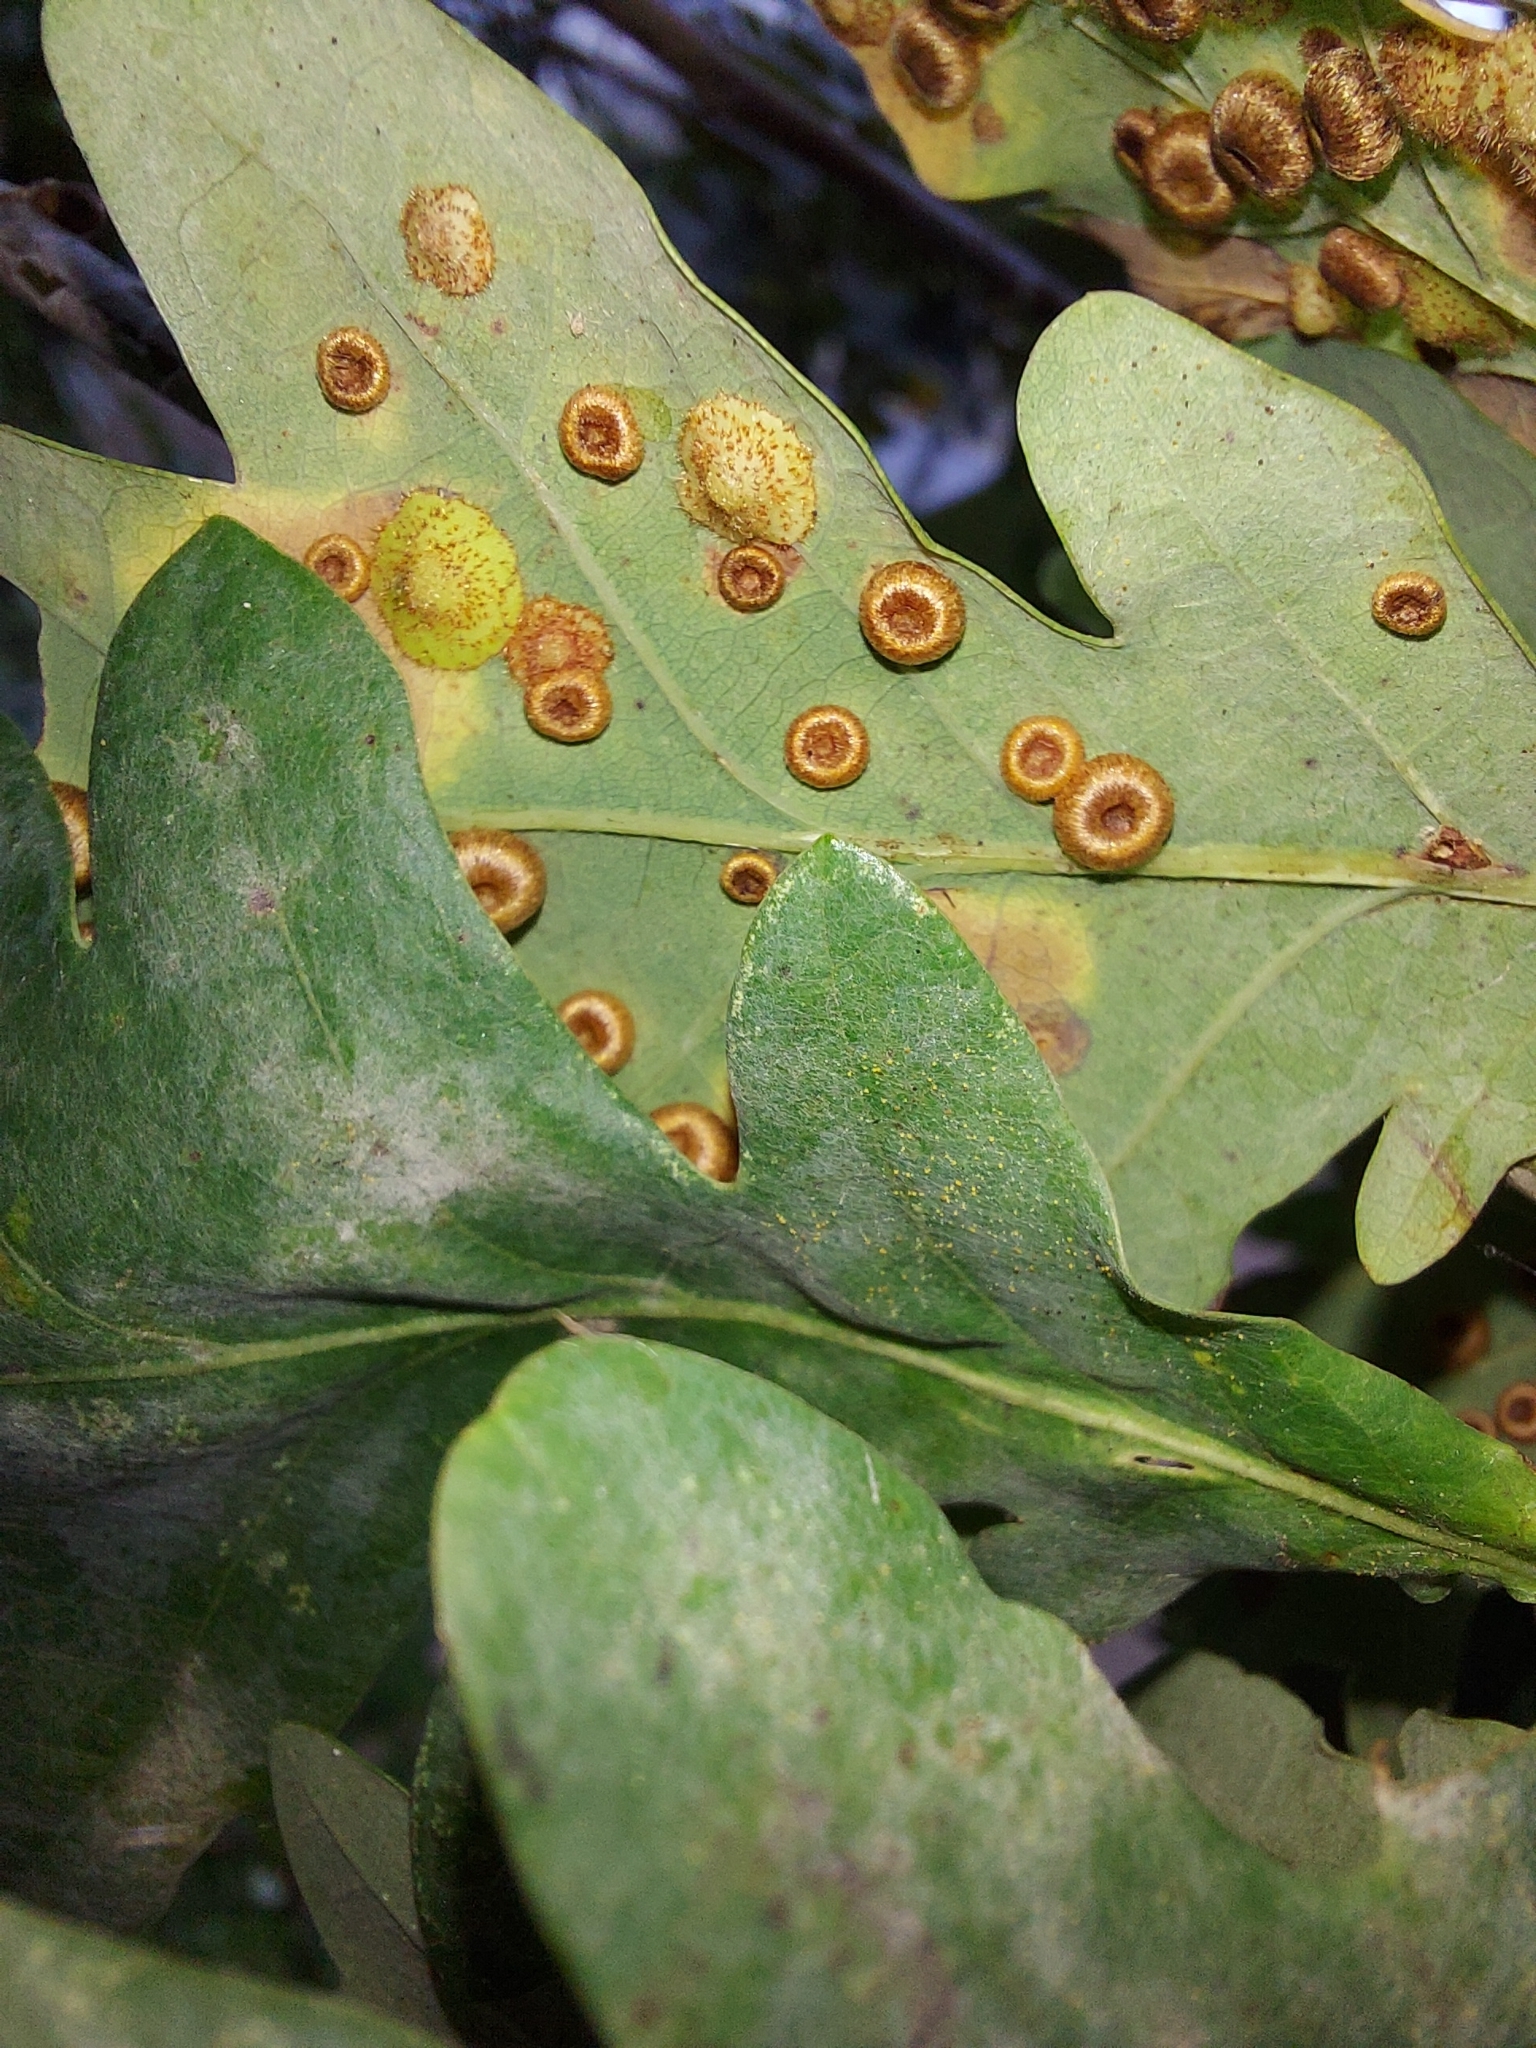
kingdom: Animalia
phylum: Arthropoda
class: Insecta
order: Hymenoptera
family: Cynipidae
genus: Neuroterus
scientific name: Neuroterus numismalis
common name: Silk-button spangle gall
